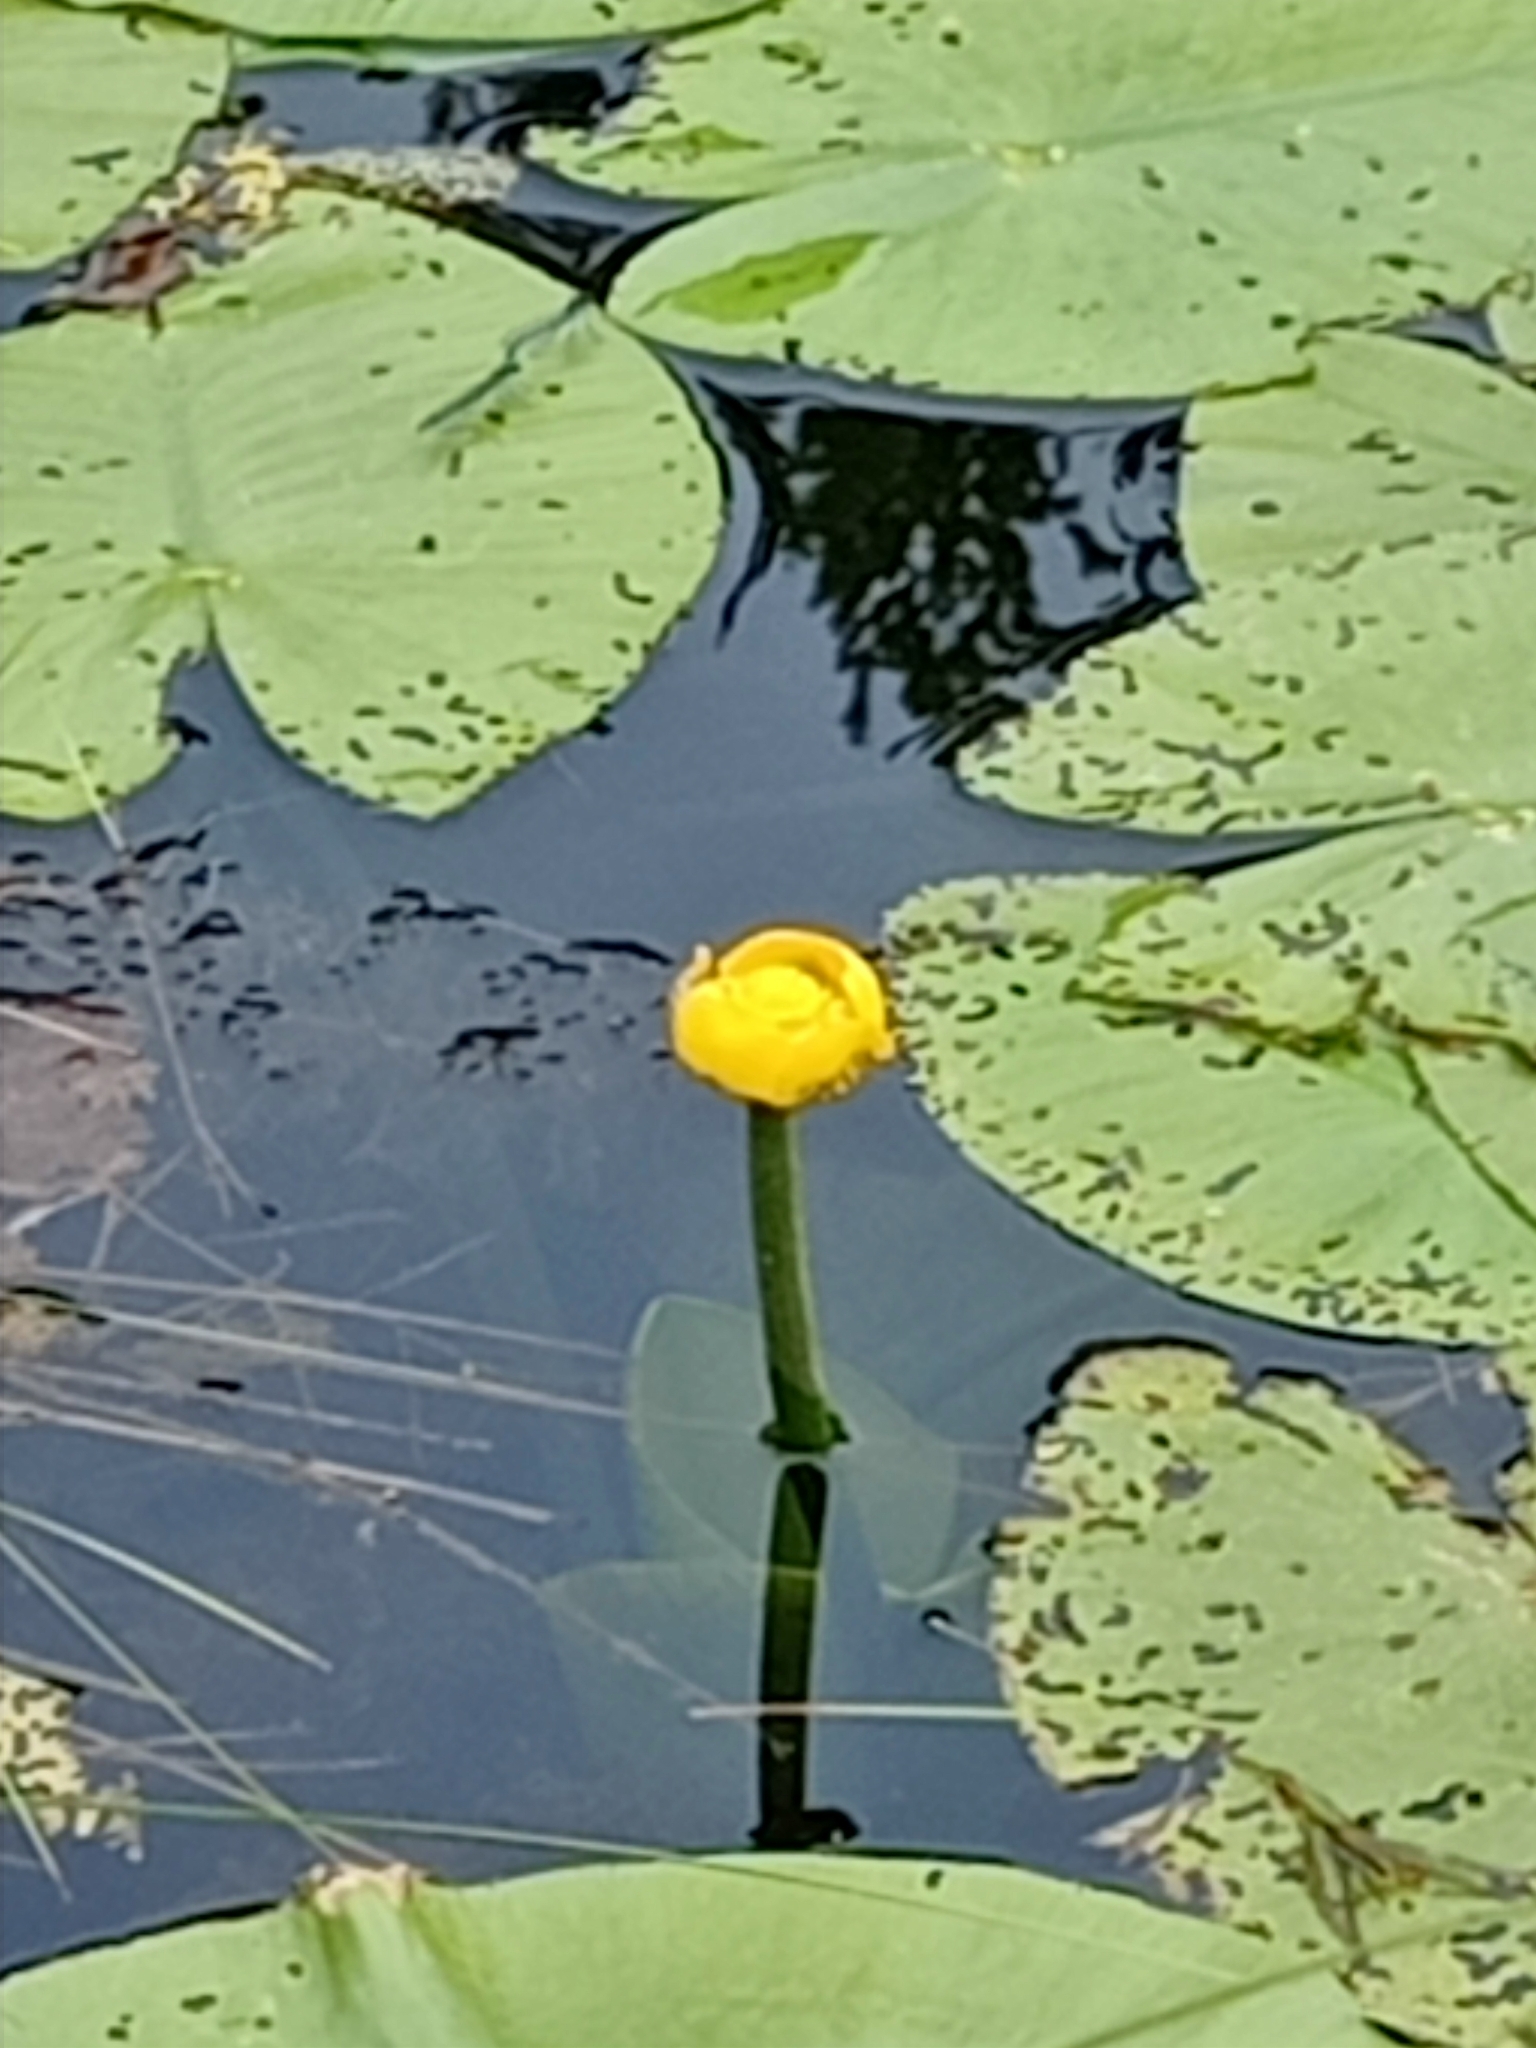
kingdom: Plantae
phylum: Tracheophyta
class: Magnoliopsida
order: Nymphaeales
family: Nymphaeaceae
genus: Nuphar
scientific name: Nuphar lutea
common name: Yellow water-lily
